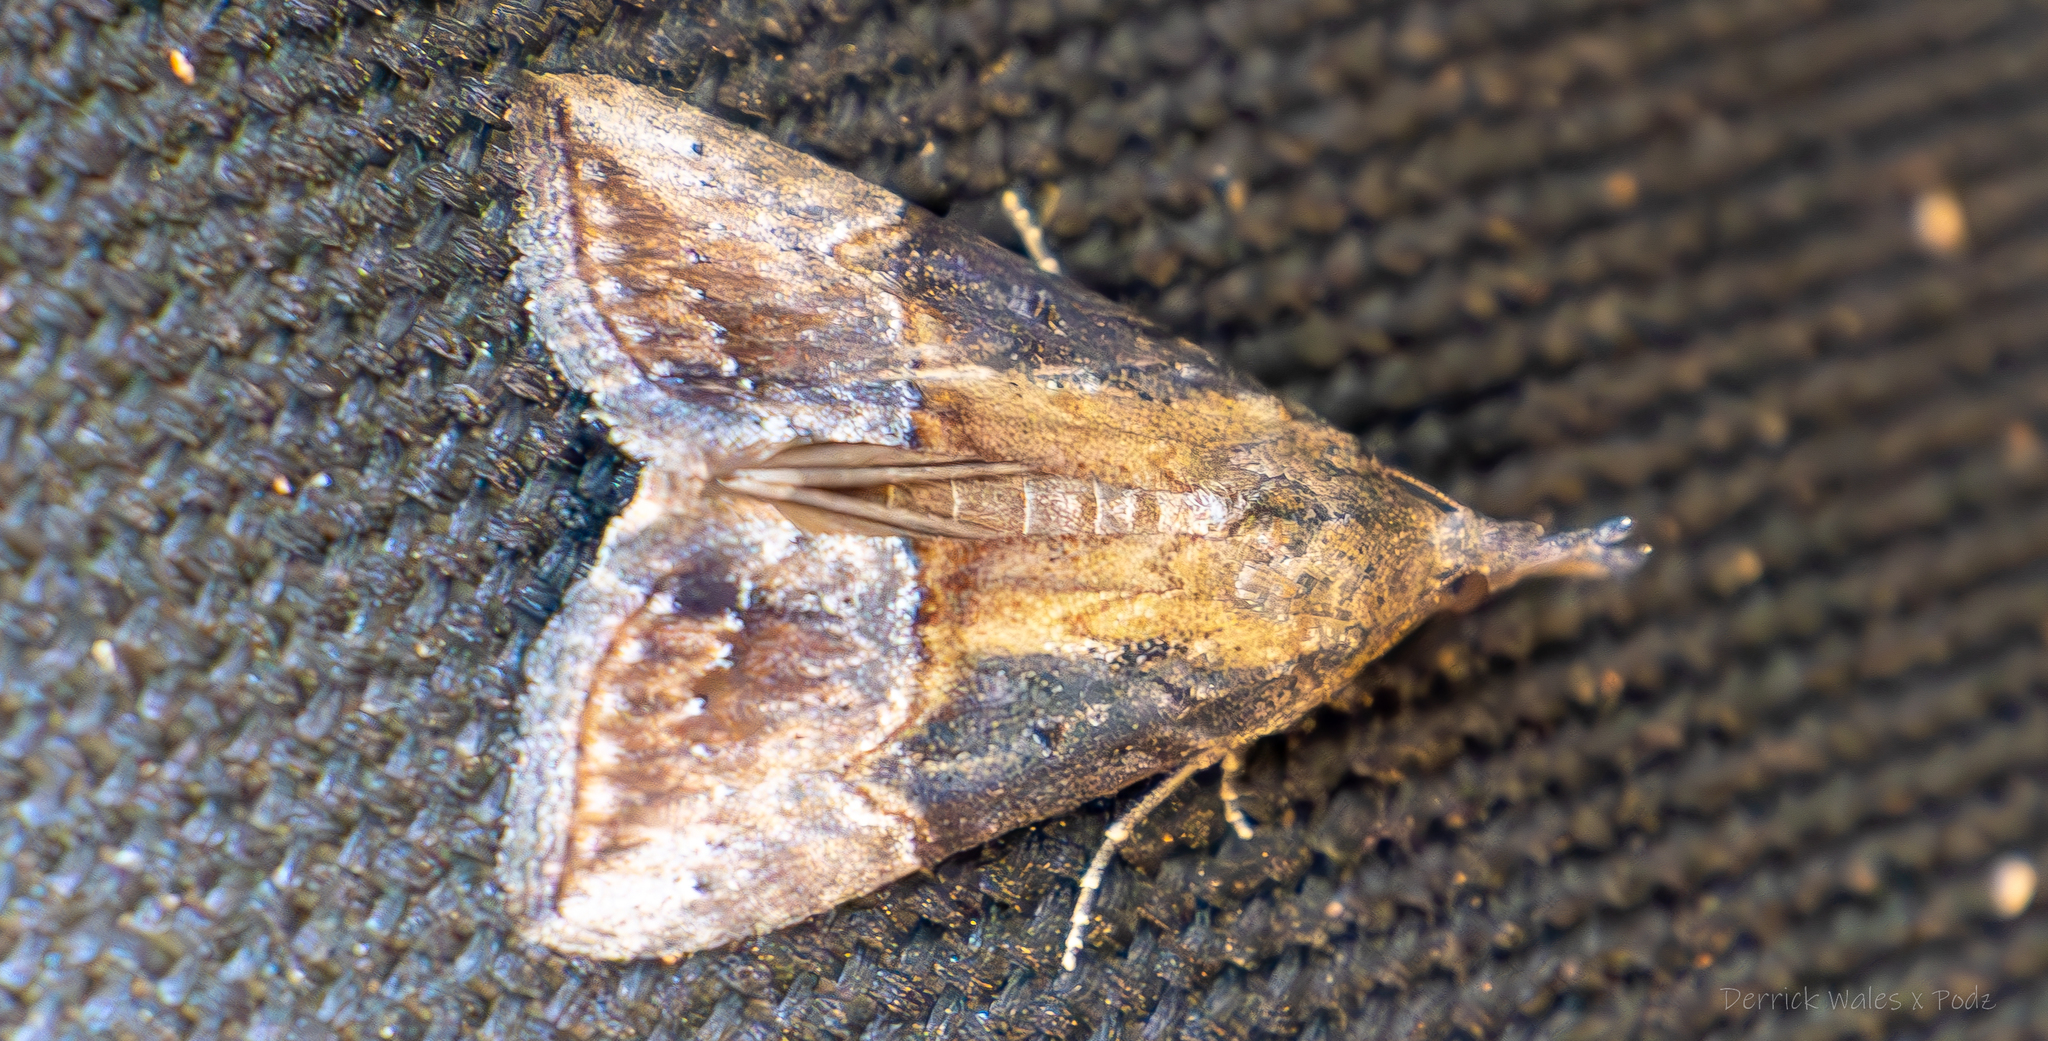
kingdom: Animalia
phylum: Arthropoda
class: Insecta
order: Lepidoptera
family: Erebidae
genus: Hypena
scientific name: Hypena scabra
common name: Green cloverworm
